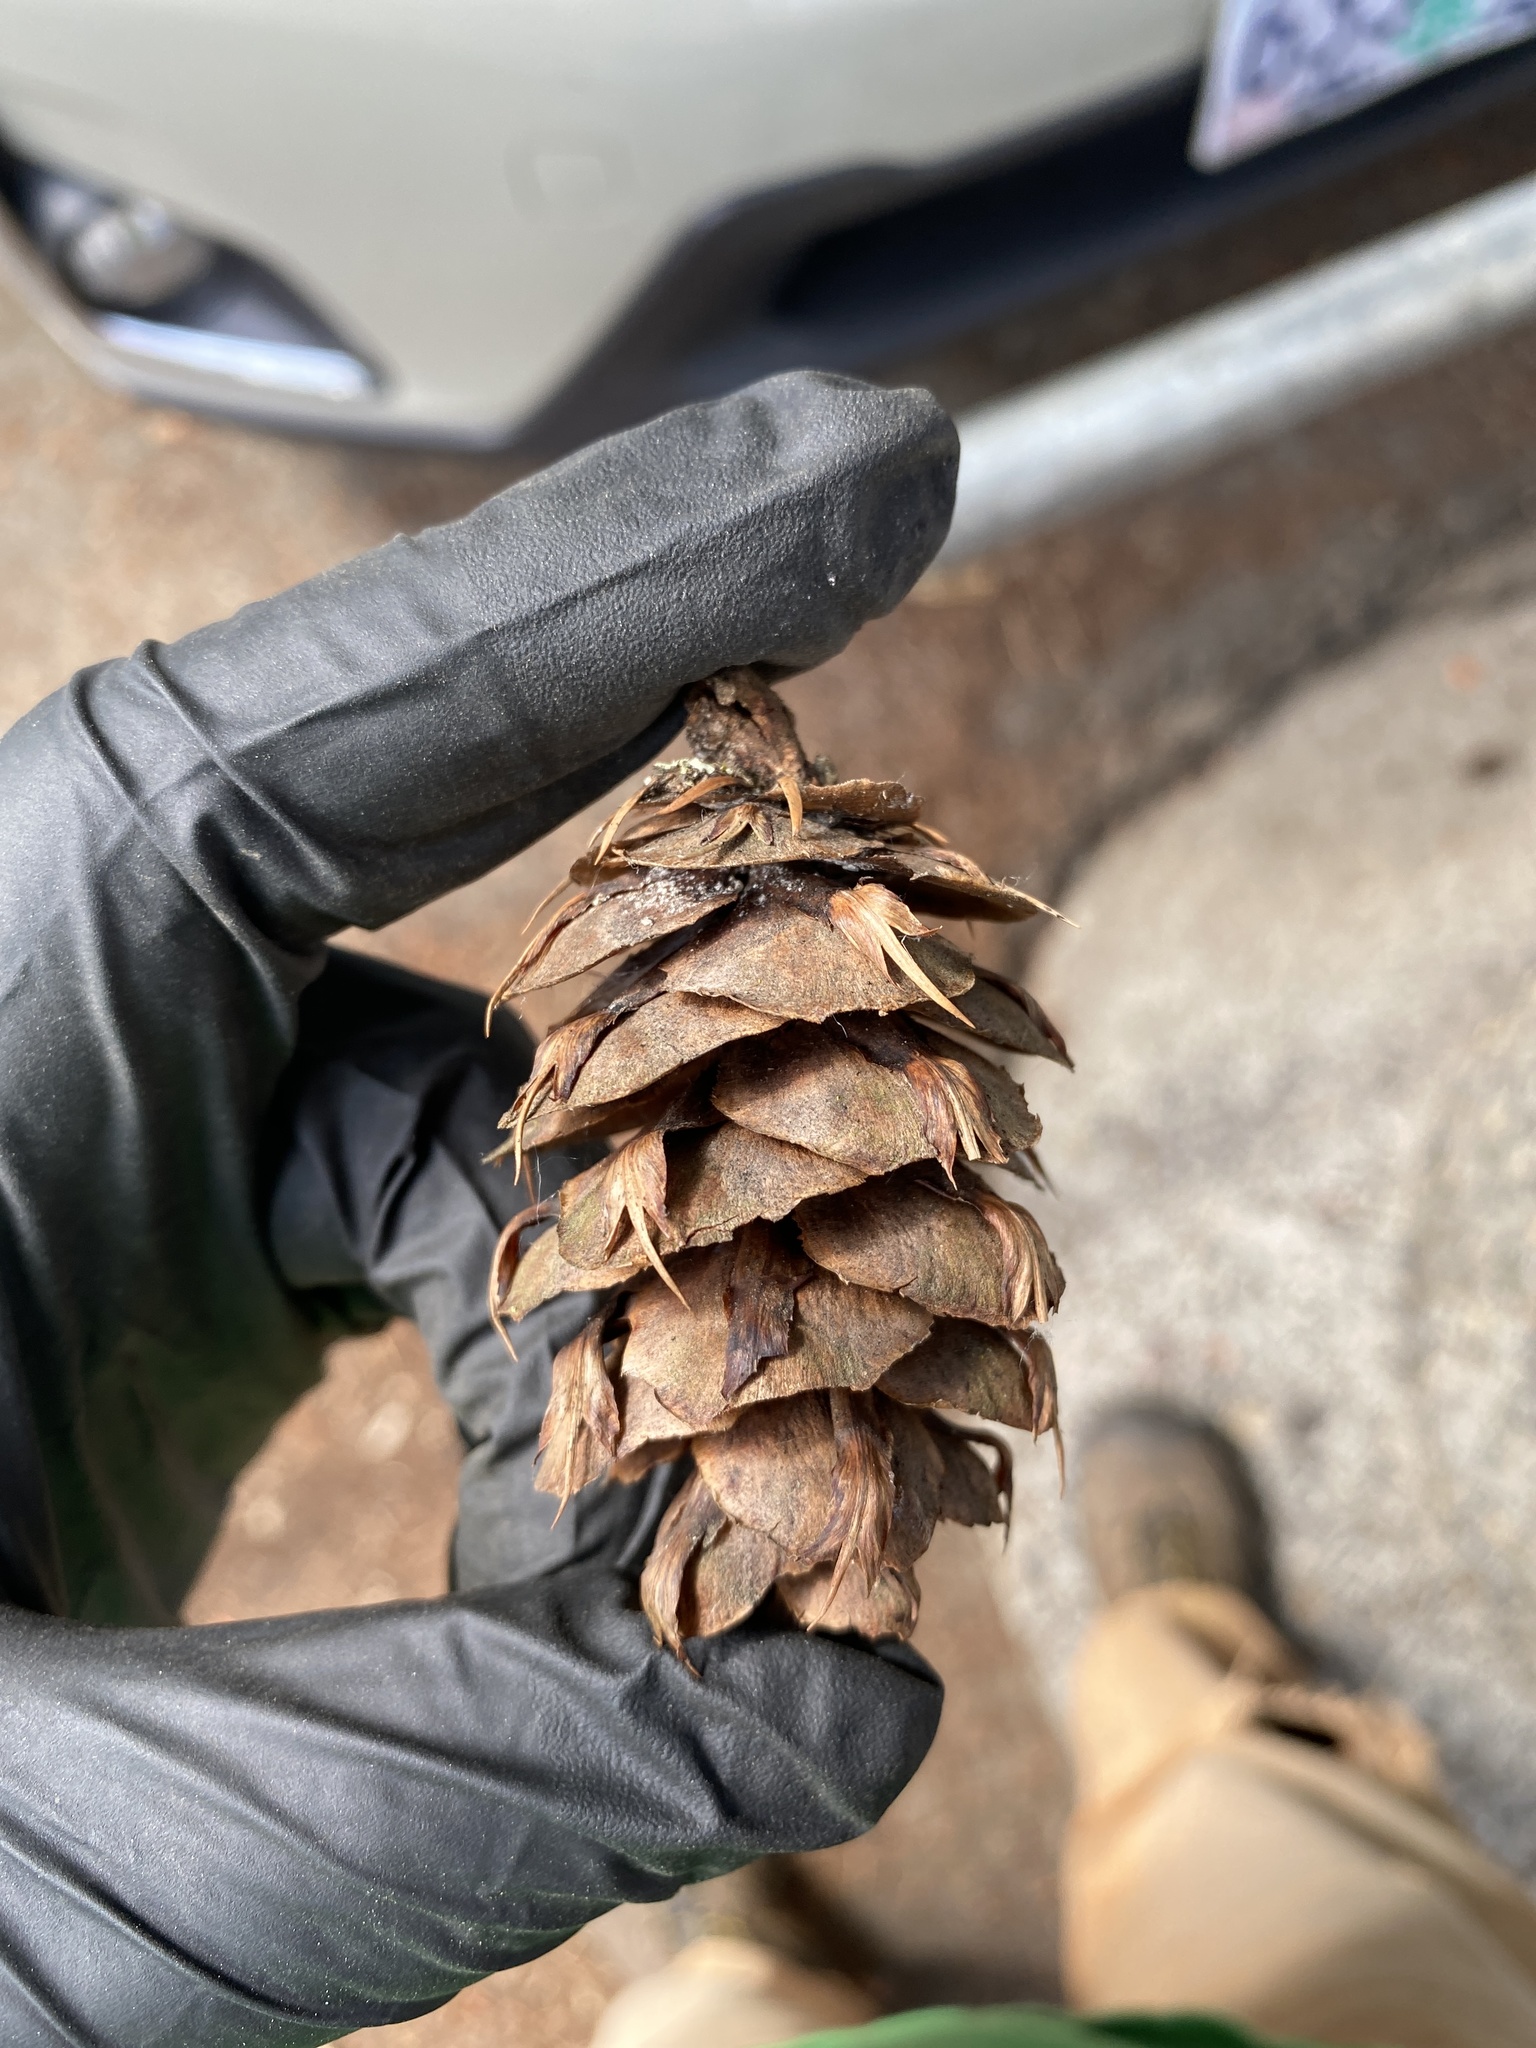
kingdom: Plantae
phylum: Tracheophyta
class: Pinopsida
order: Pinales
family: Pinaceae
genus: Pseudotsuga
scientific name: Pseudotsuga menziesii
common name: Douglas fir
